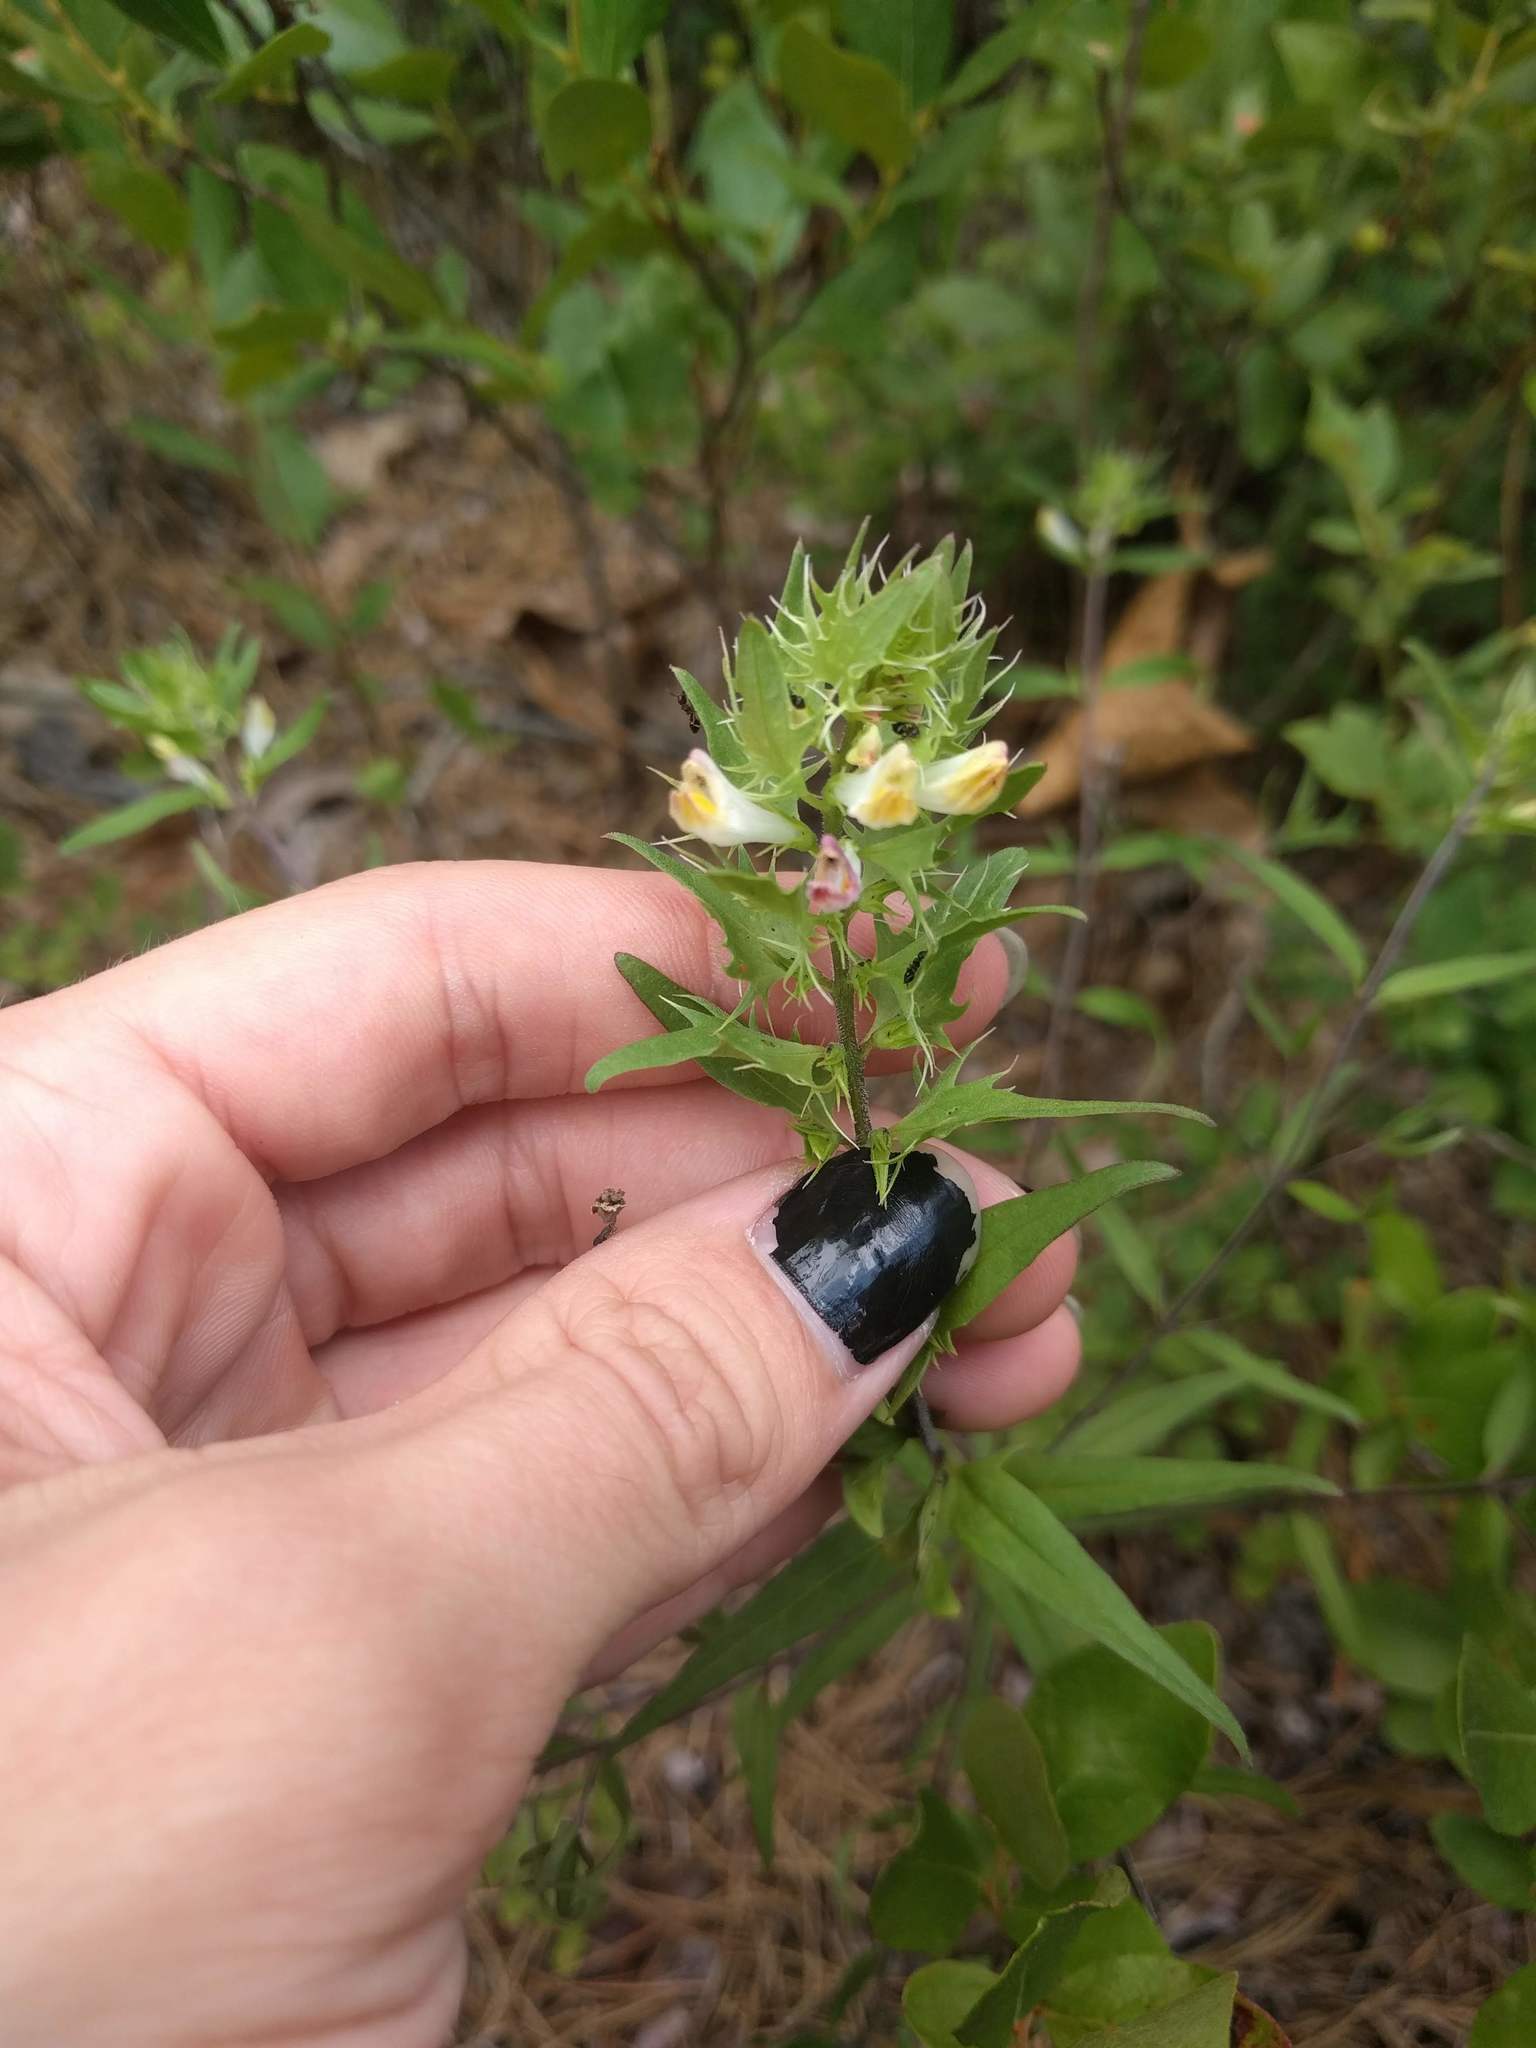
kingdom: Plantae
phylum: Tracheophyta
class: Magnoliopsida
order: Lamiales
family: Orobanchaceae
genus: Melampyrum
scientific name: Melampyrum lineare
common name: American cow-wheat
